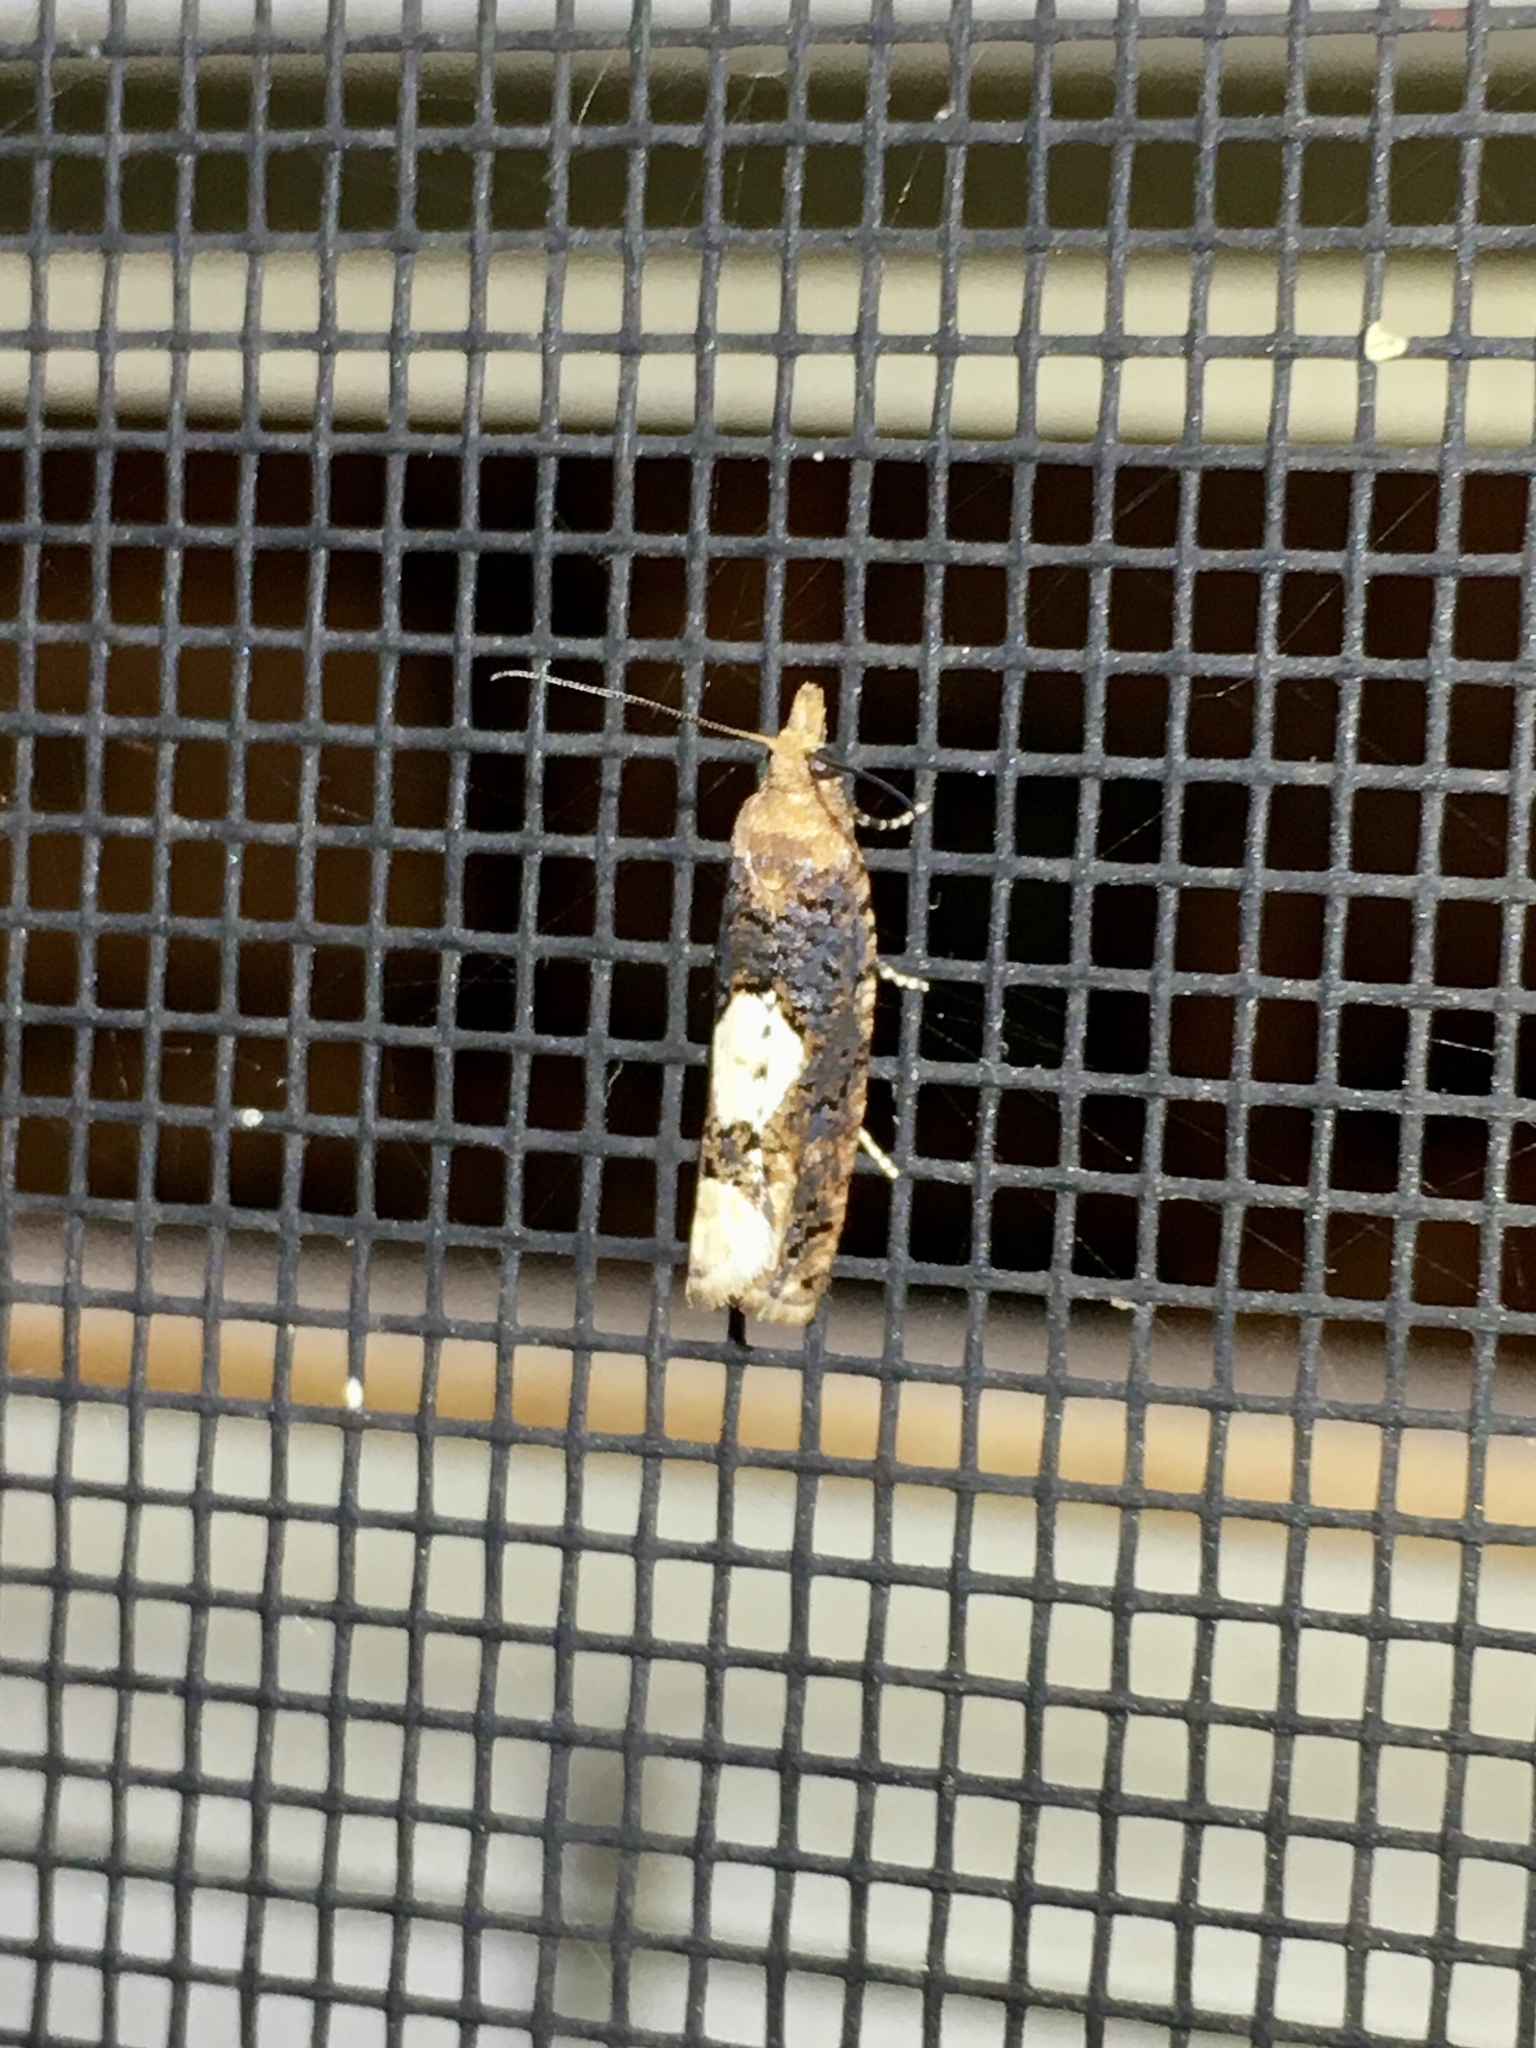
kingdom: Animalia
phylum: Arthropoda
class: Insecta
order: Lepidoptera
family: Tortricidae
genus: Epinotia
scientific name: Epinotia trigonella
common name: White-blotch bell
